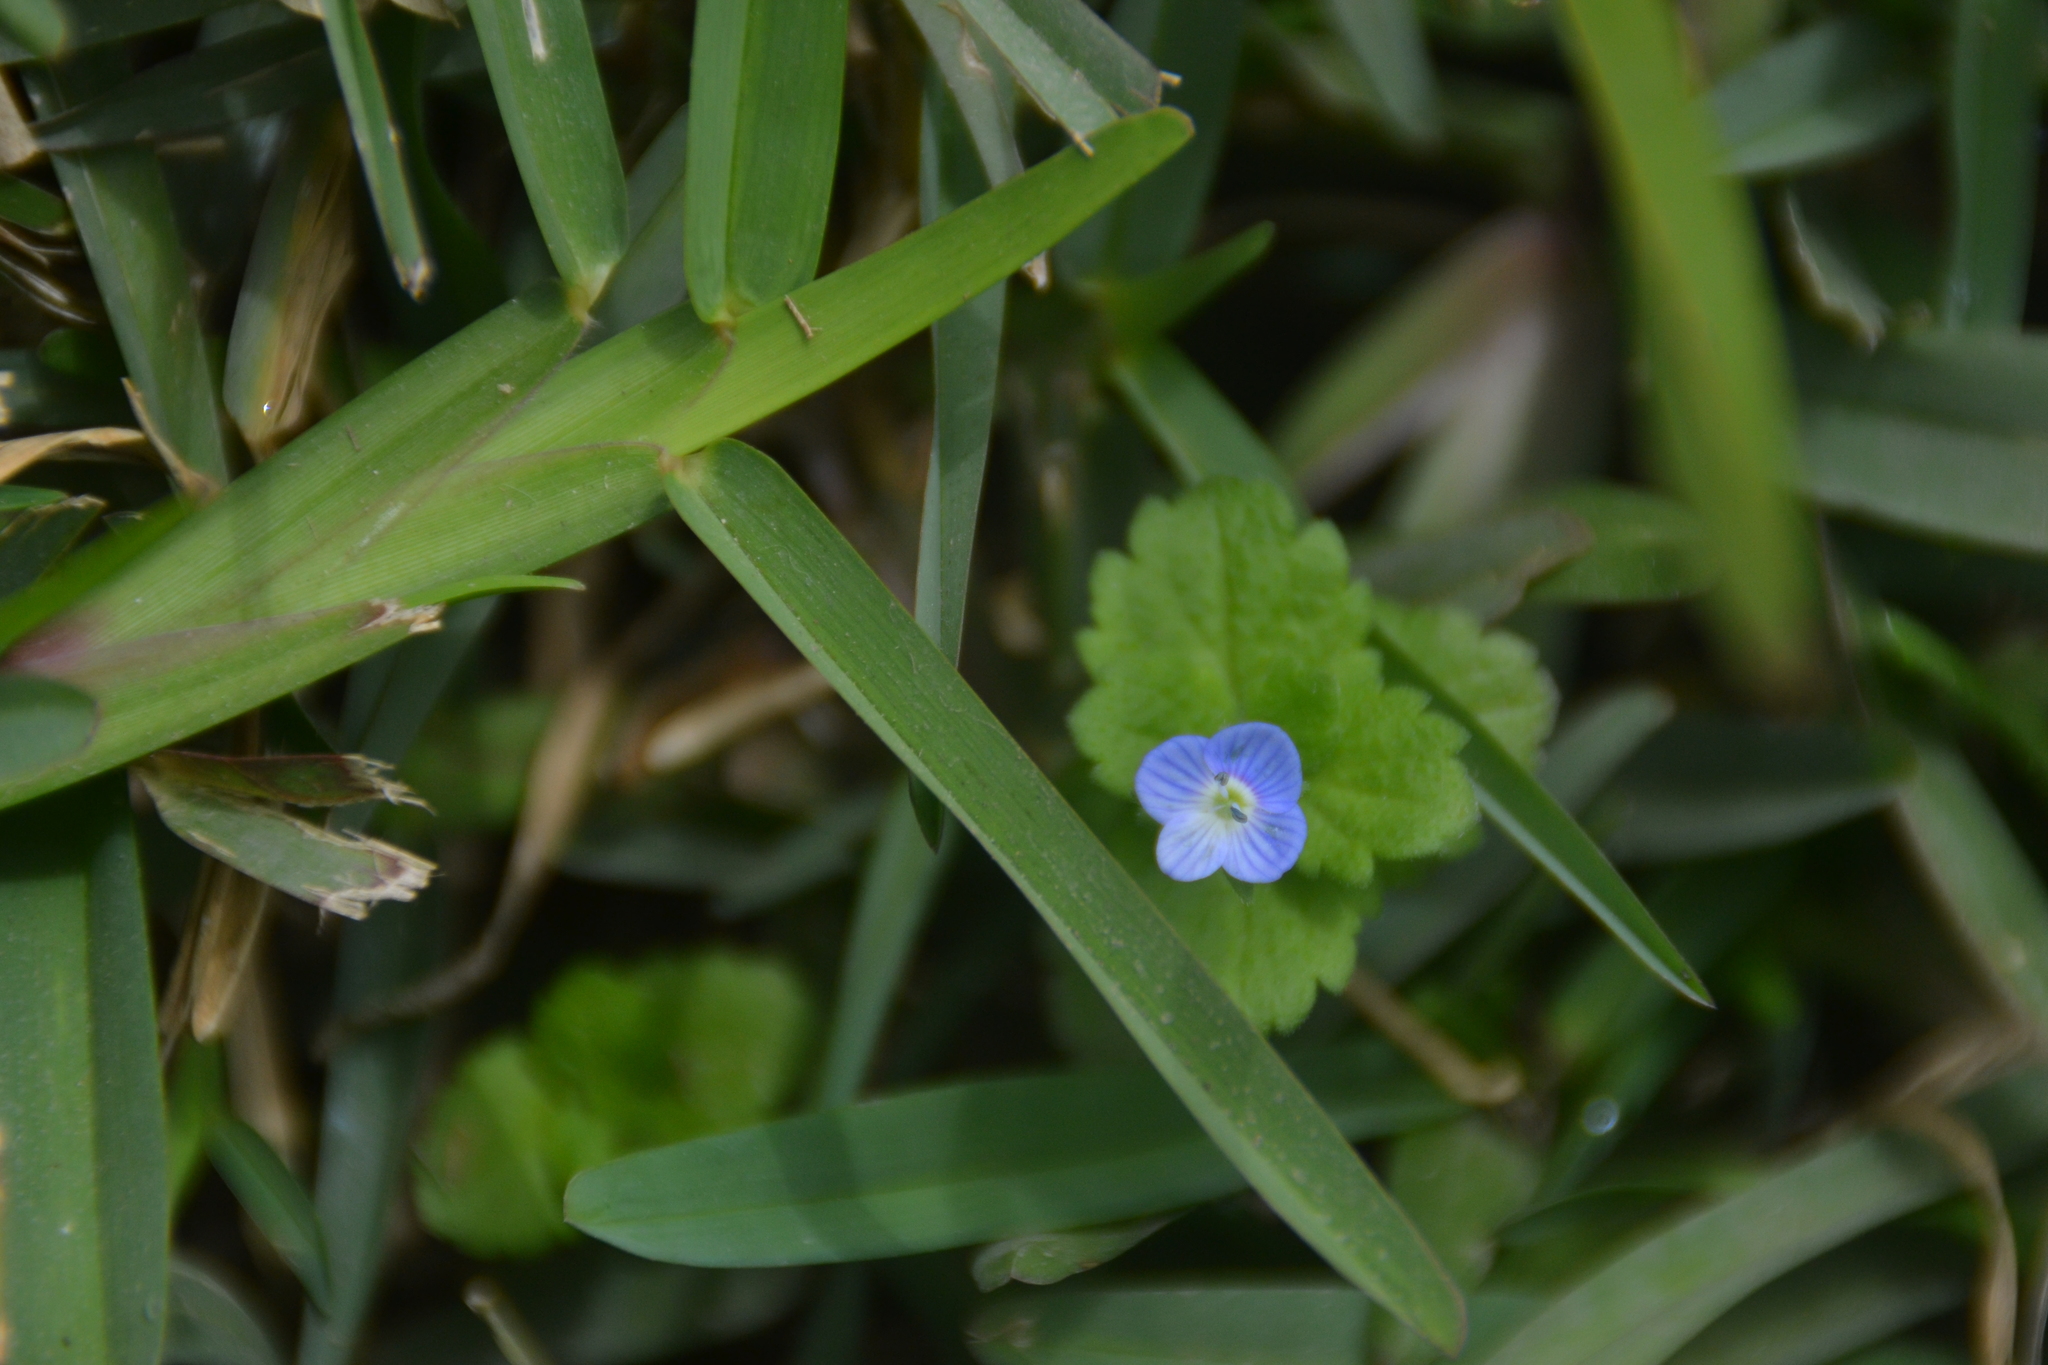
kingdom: Plantae
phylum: Tracheophyta
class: Magnoliopsida
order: Lamiales
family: Plantaginaceae
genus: Veronica
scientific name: Veronica persica
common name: Common field-speedwell
